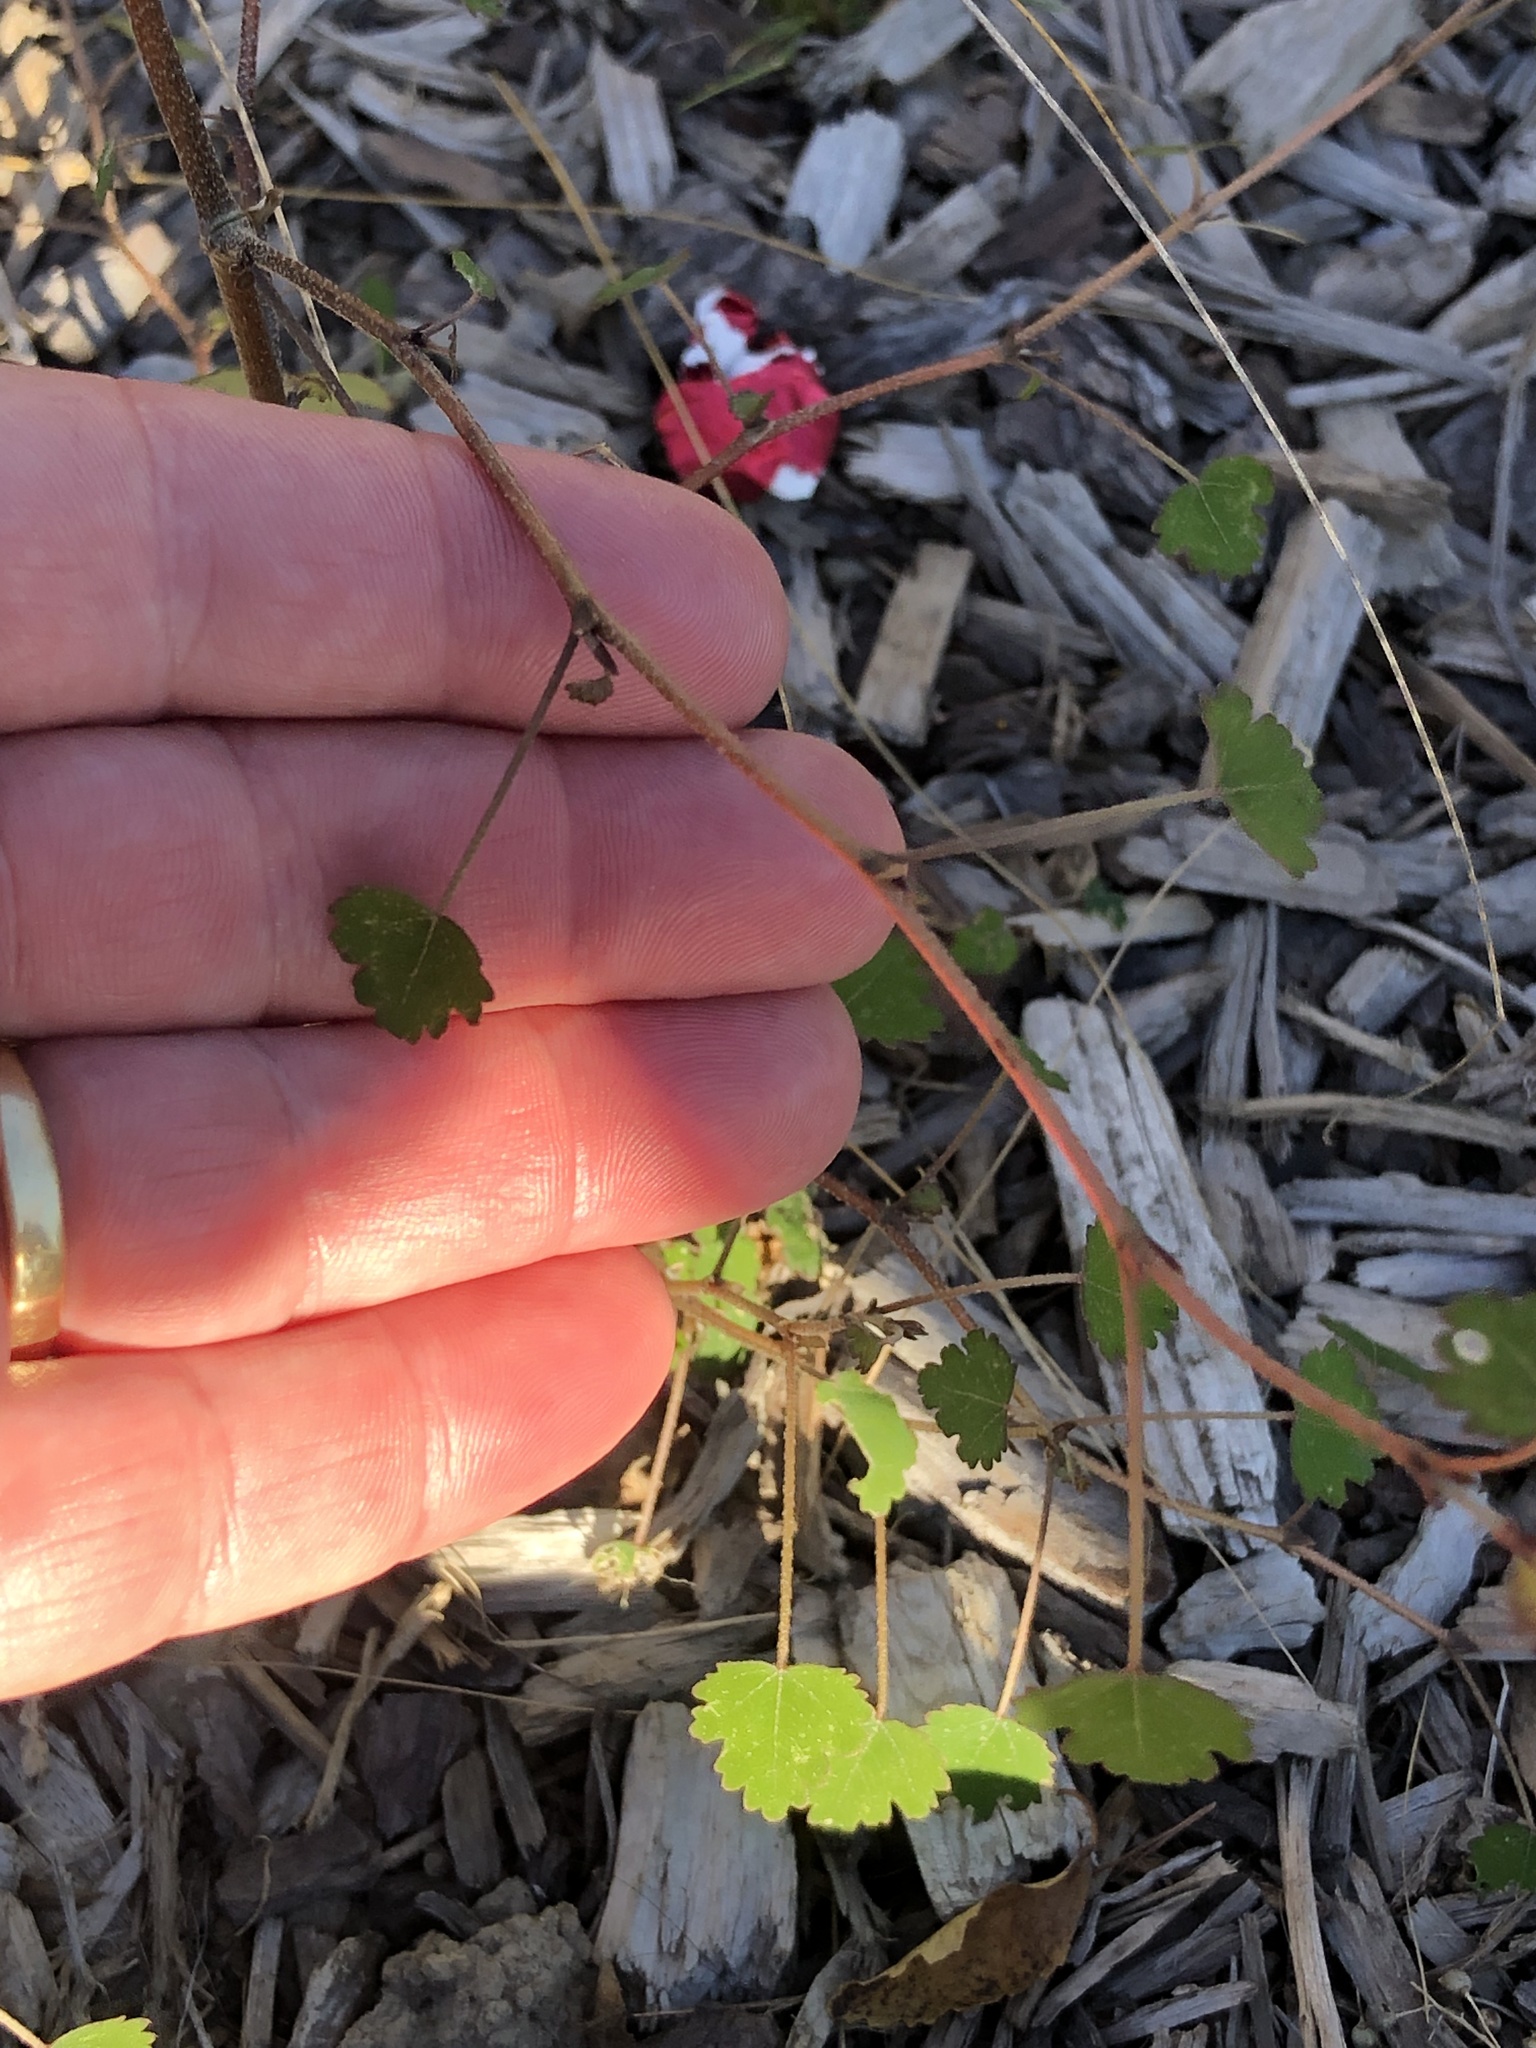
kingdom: Plantae
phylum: Tracheophyta
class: Magnoliopsida
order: Malvales
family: Malvaceae
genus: Plagianthus
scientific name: Plagianthus regius
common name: Manatu
